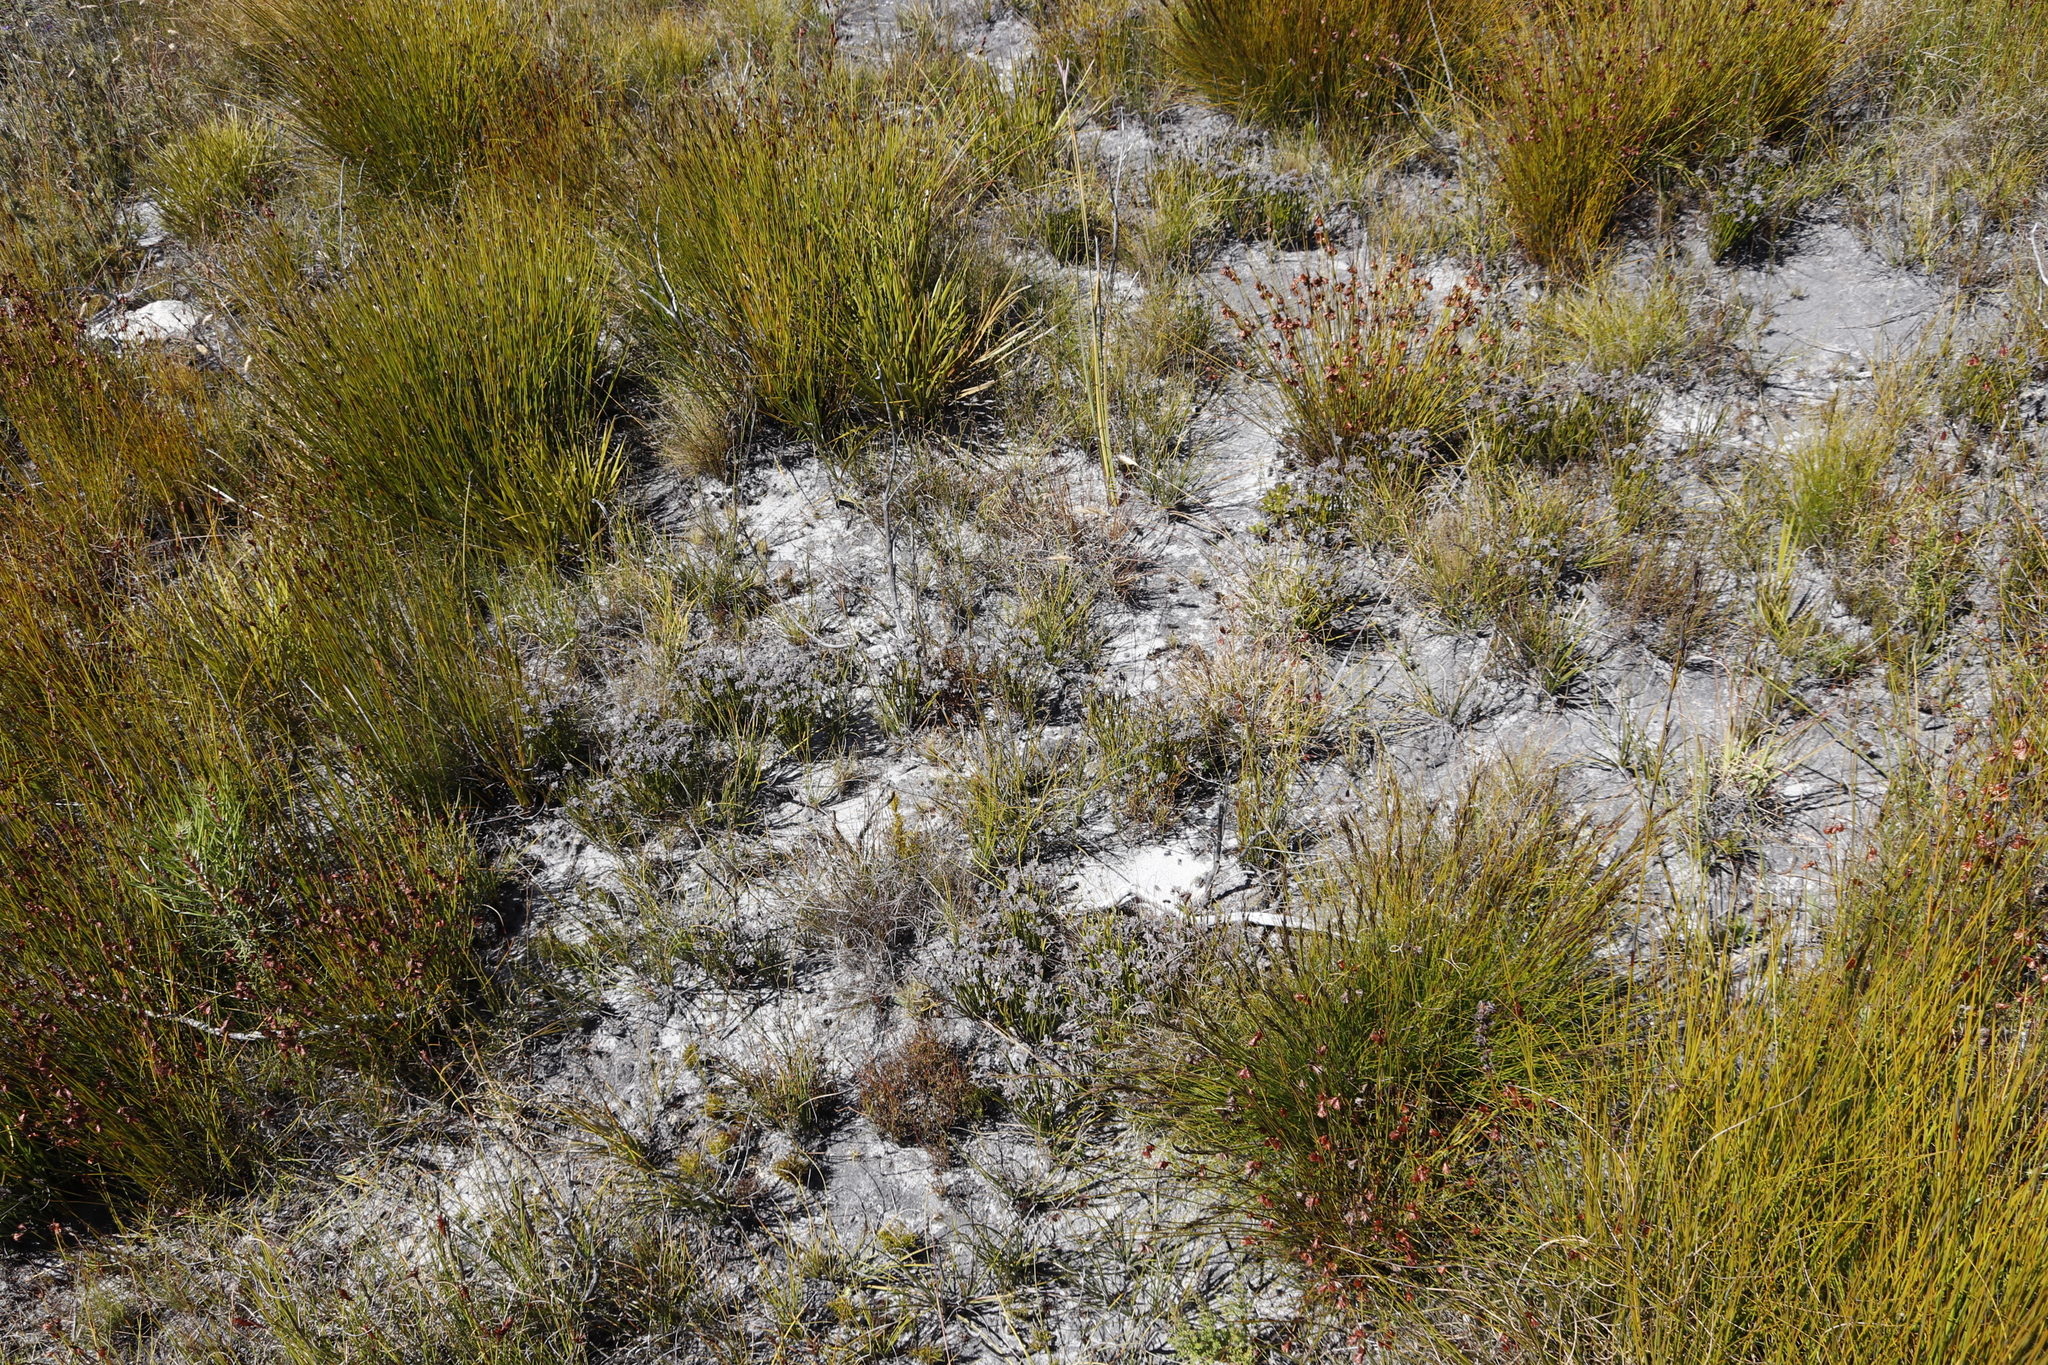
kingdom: Plantae
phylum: Tracheophyta
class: Polypodiopsida
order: Schizaeales
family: Schizaeaceae
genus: Schizaea
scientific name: Schizaea pectinata
